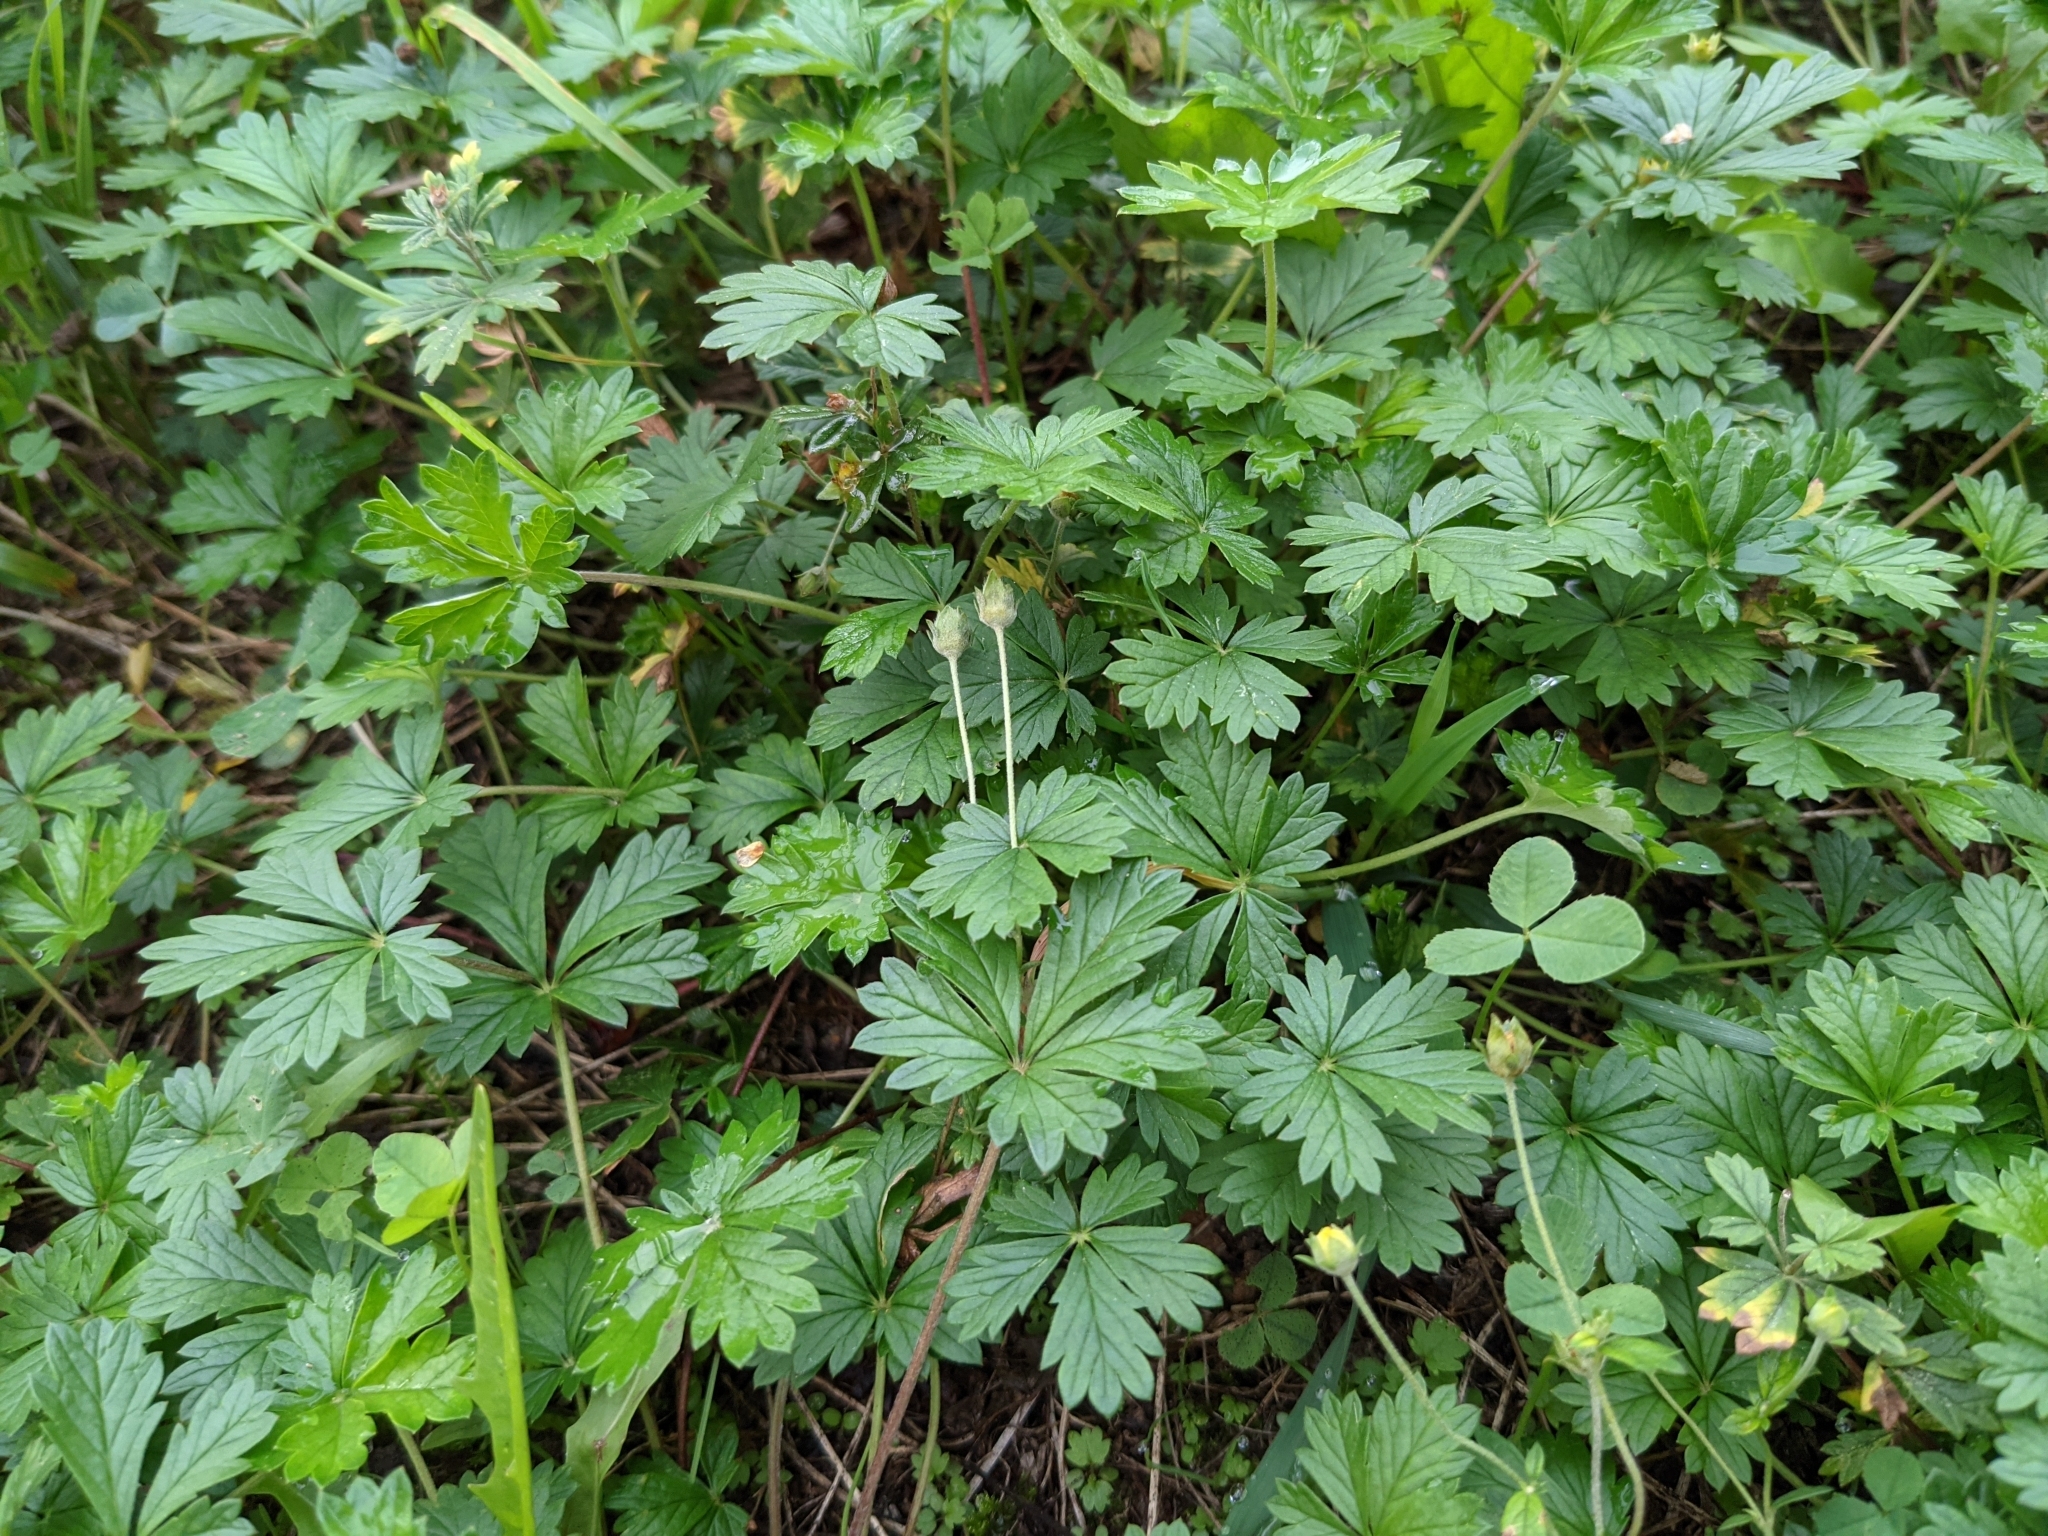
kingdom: Plantae
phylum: Tracheophyta
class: Magnoliopsida
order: Rosales
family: Rosaceae
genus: Potentilla
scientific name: Potentilla argentea
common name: Hoary cinquefoil
